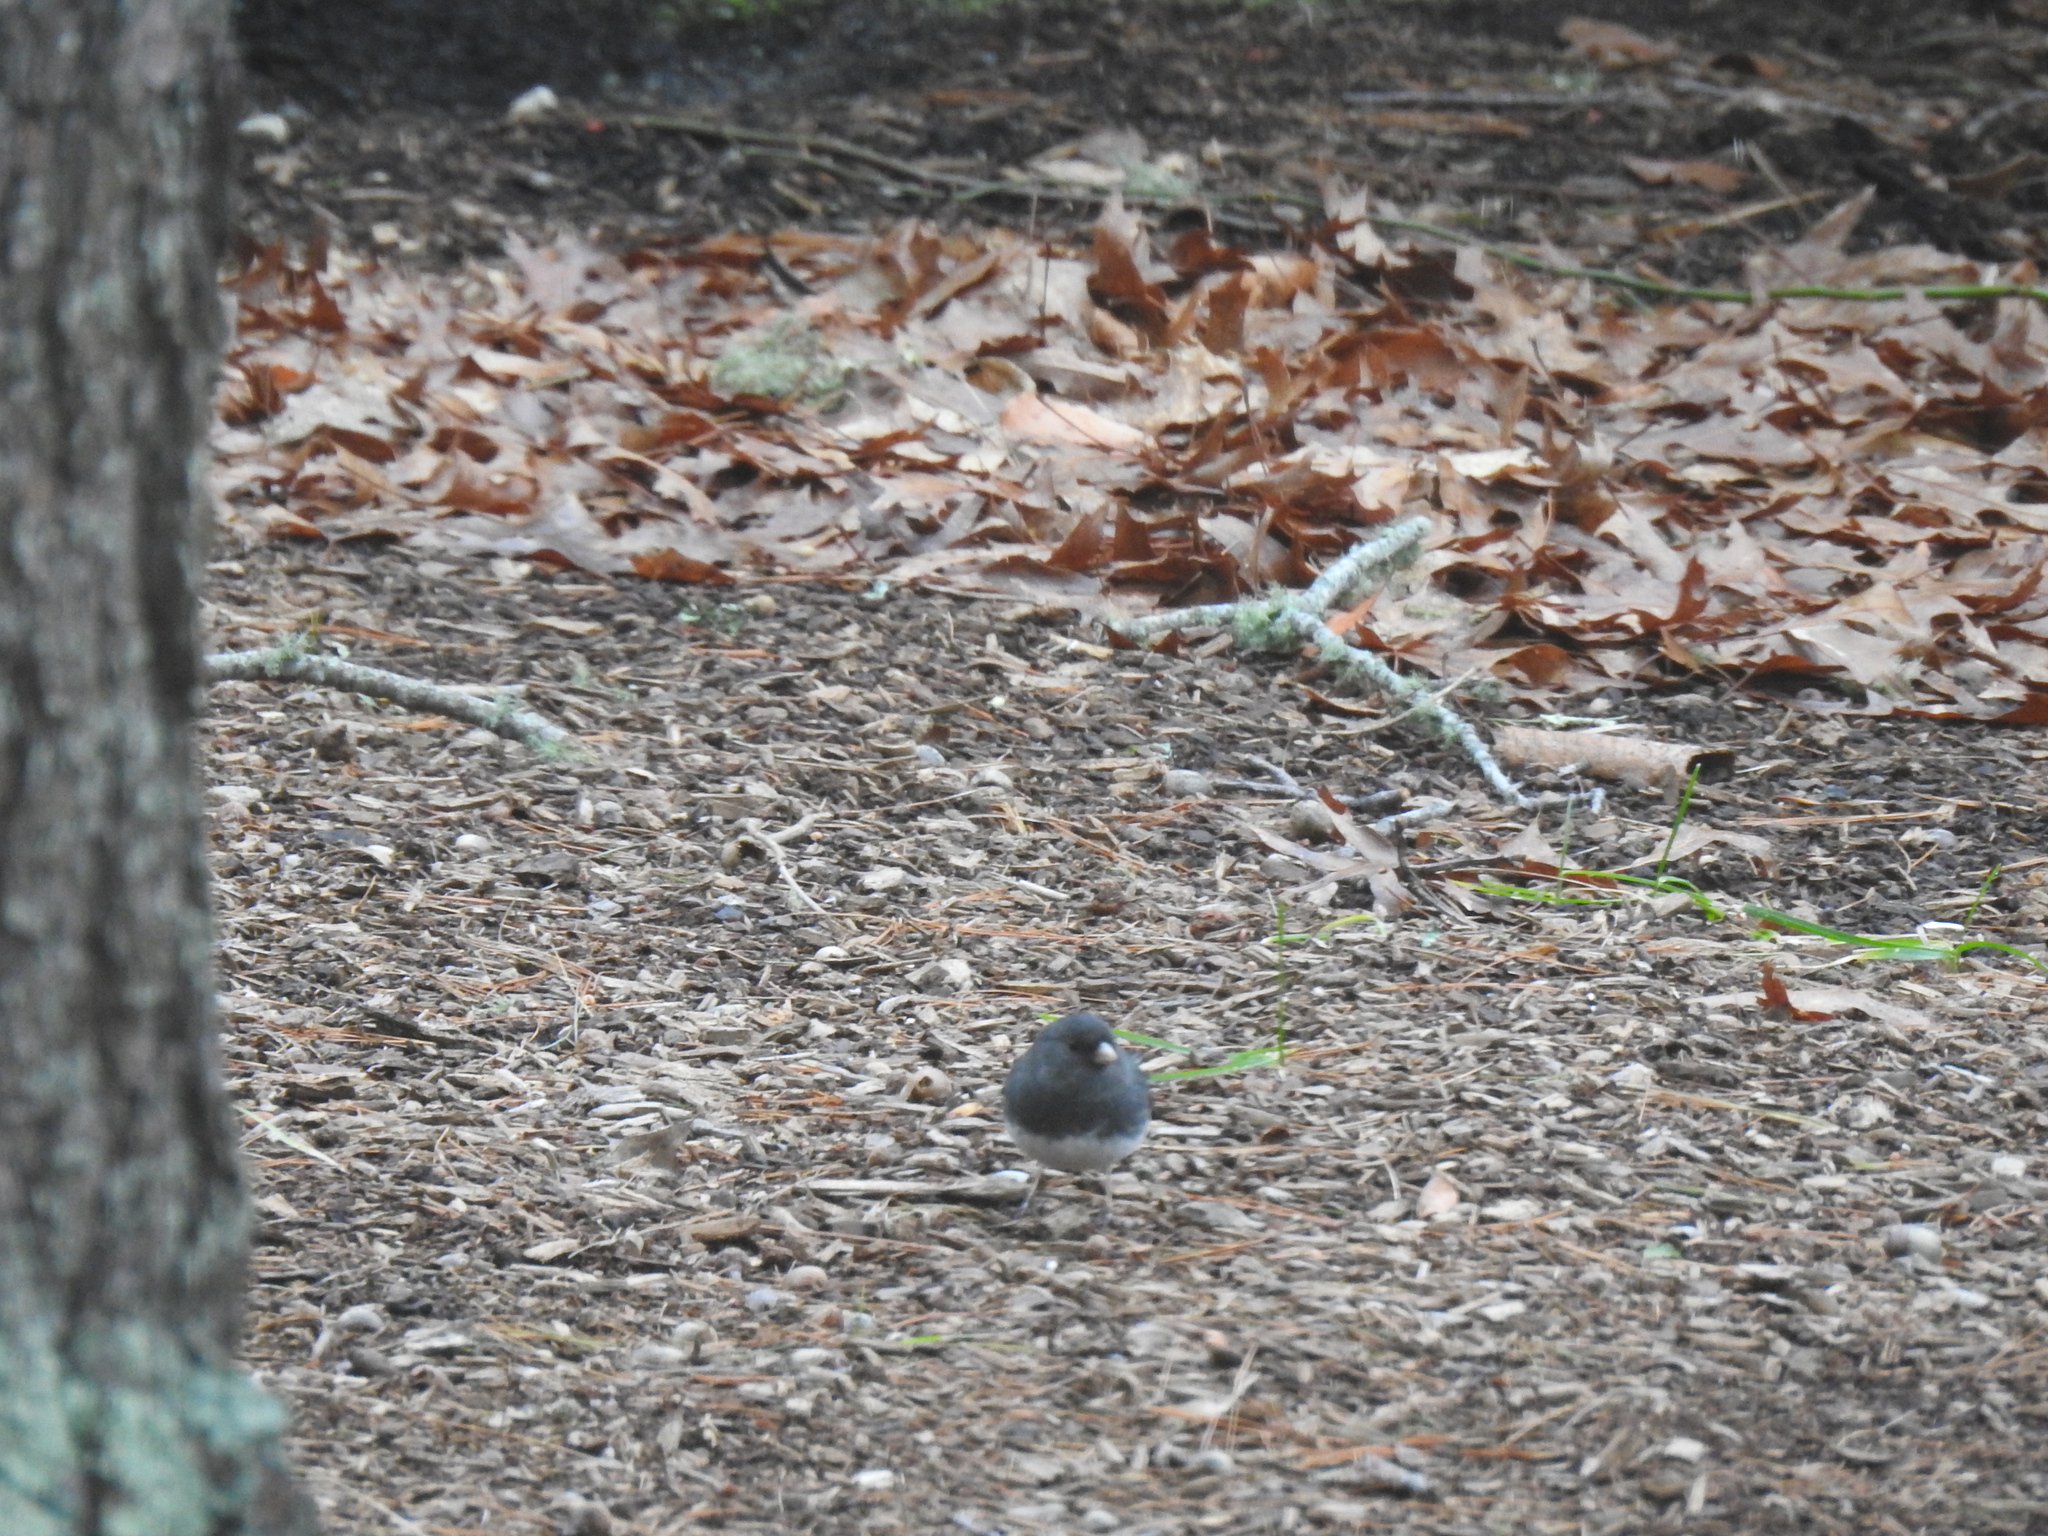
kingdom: Animalia
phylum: Chordata
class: Aves
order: Passeriformes
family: Passerellidae
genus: Junco
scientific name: Junco hyemalis
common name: Dark-eyed junco
